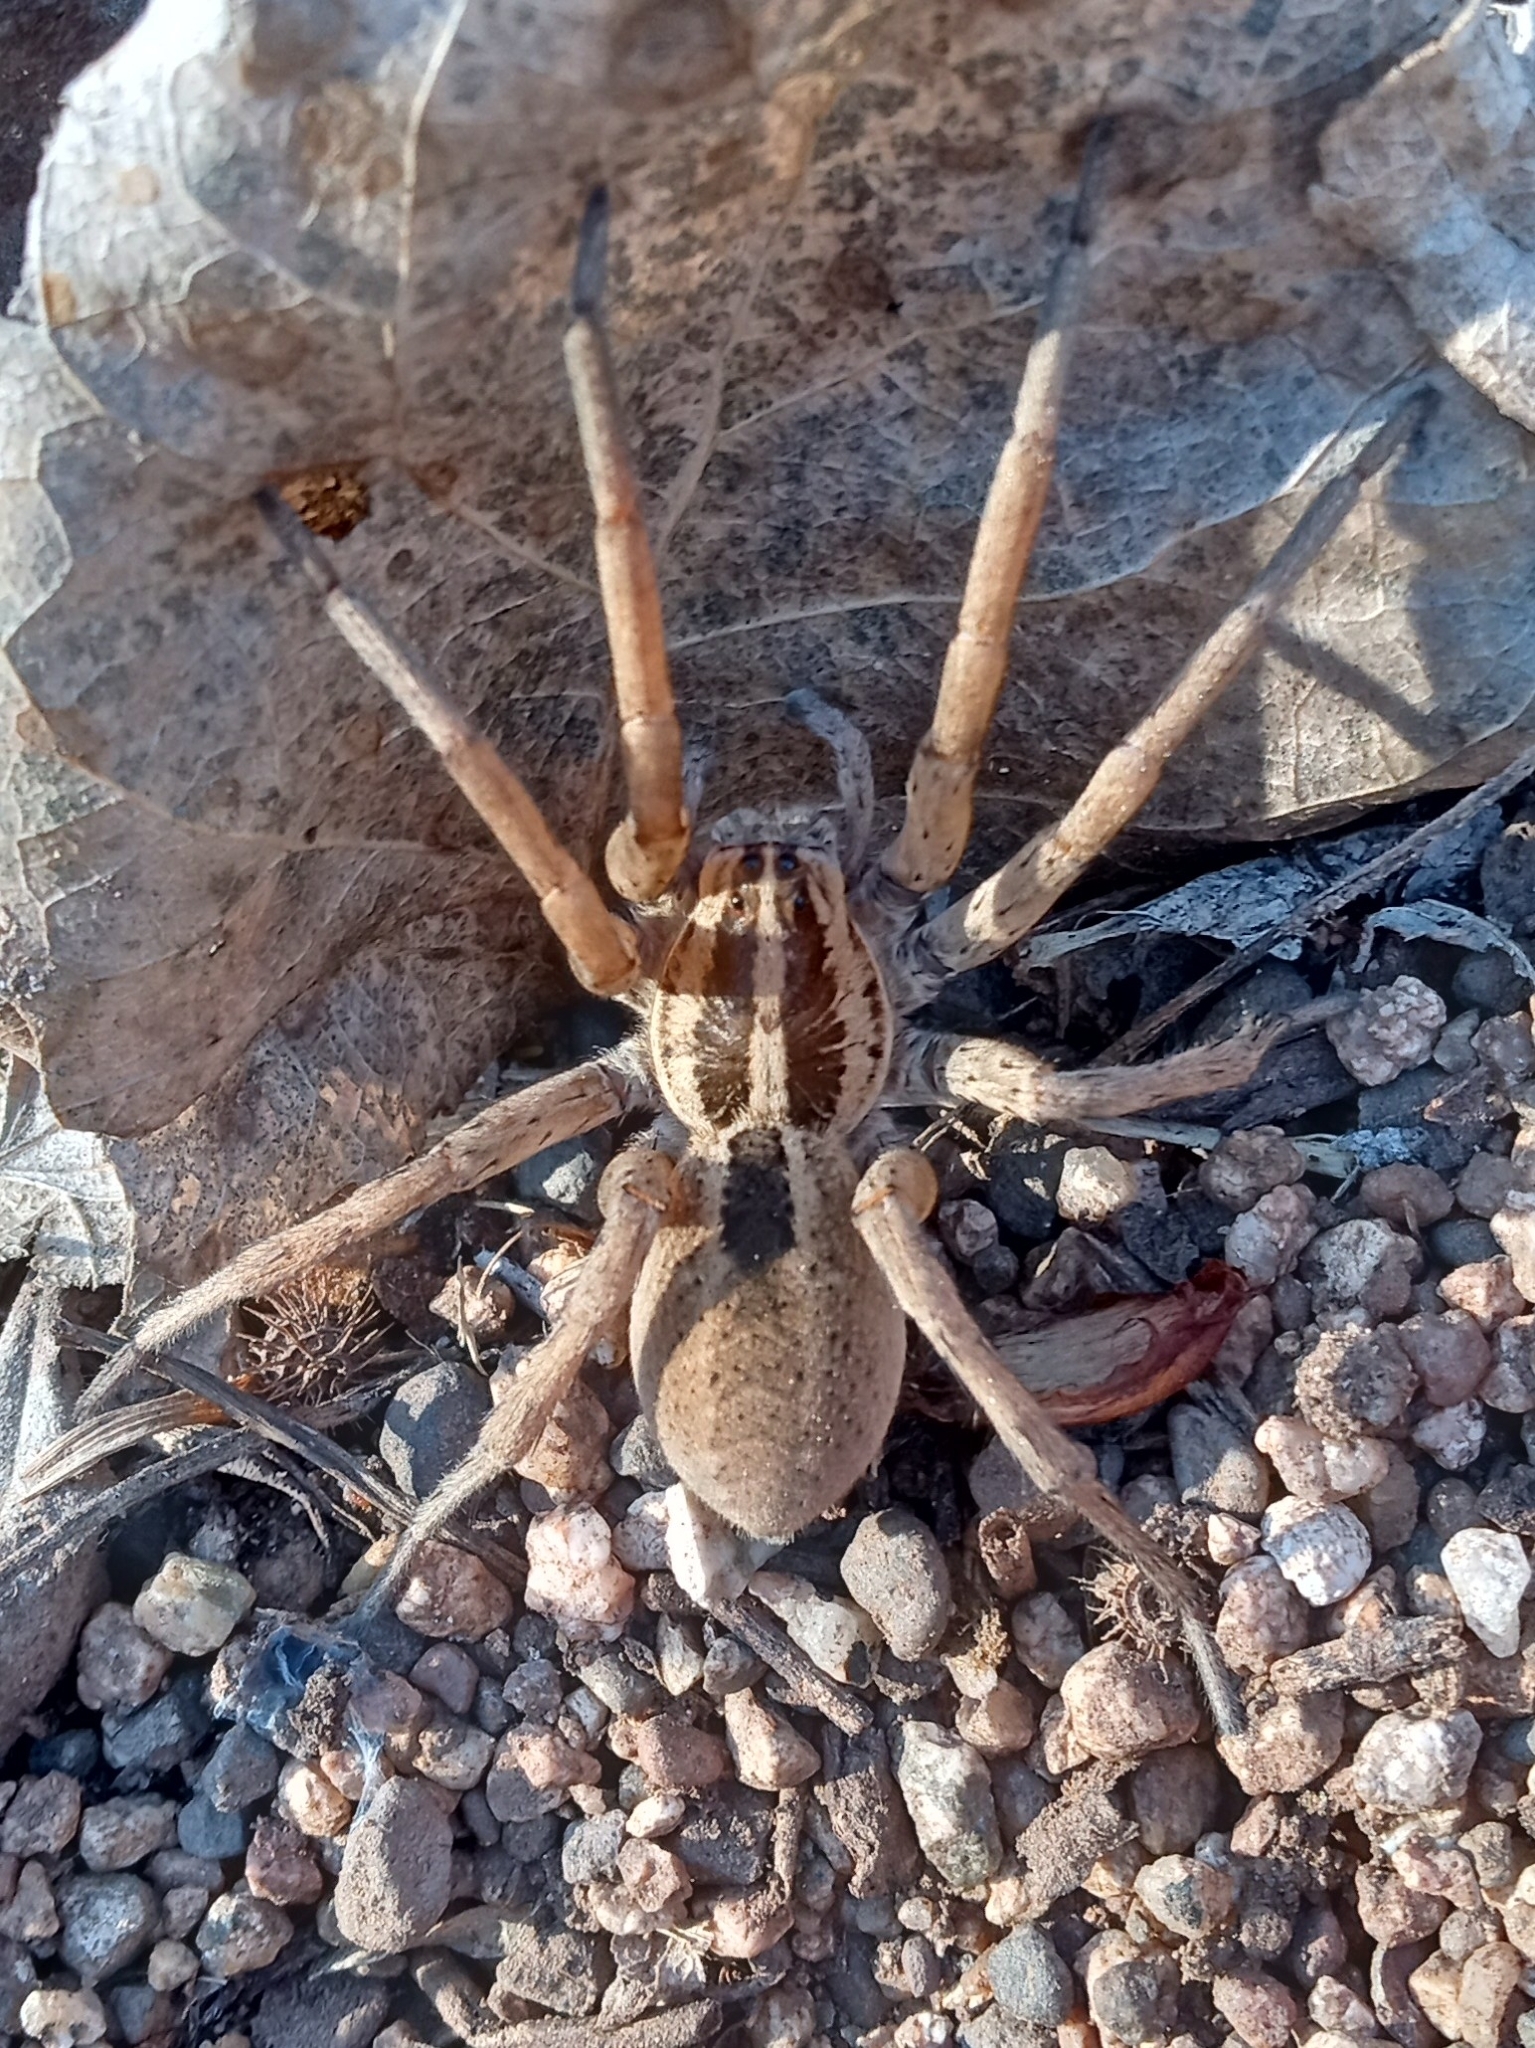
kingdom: Animalia
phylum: Arthropoda
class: Arachnida
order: Araneae
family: Lycosidae
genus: Rabidosa
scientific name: Rabidosa santrita
